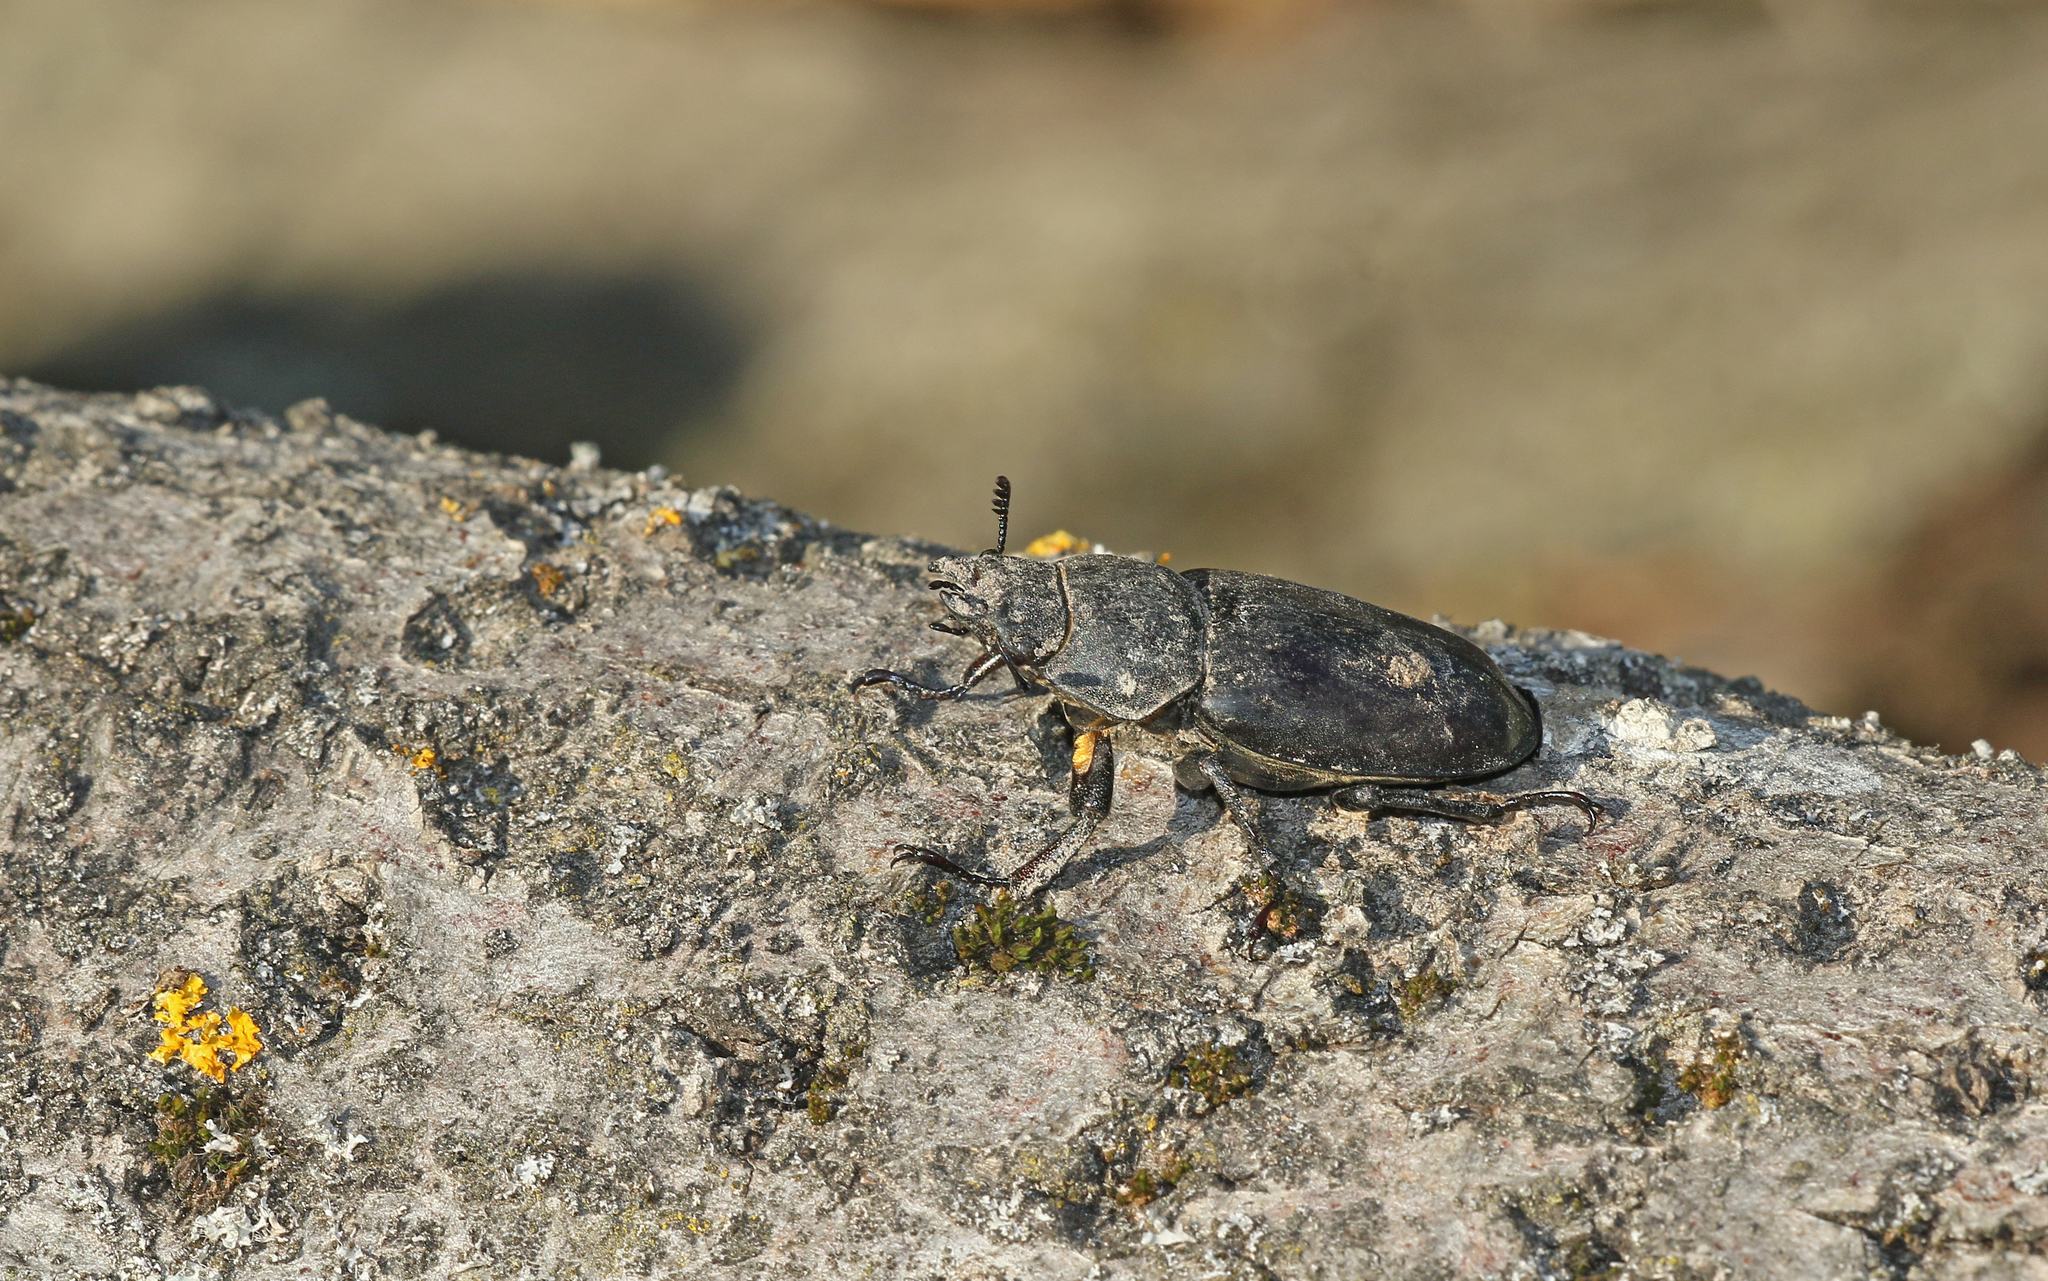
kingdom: Animalia
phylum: Arthropoda
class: Insecta
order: Coleoptera
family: Lucanidae
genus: Lucanus
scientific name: Lucanus cervus
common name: Stag beetle
